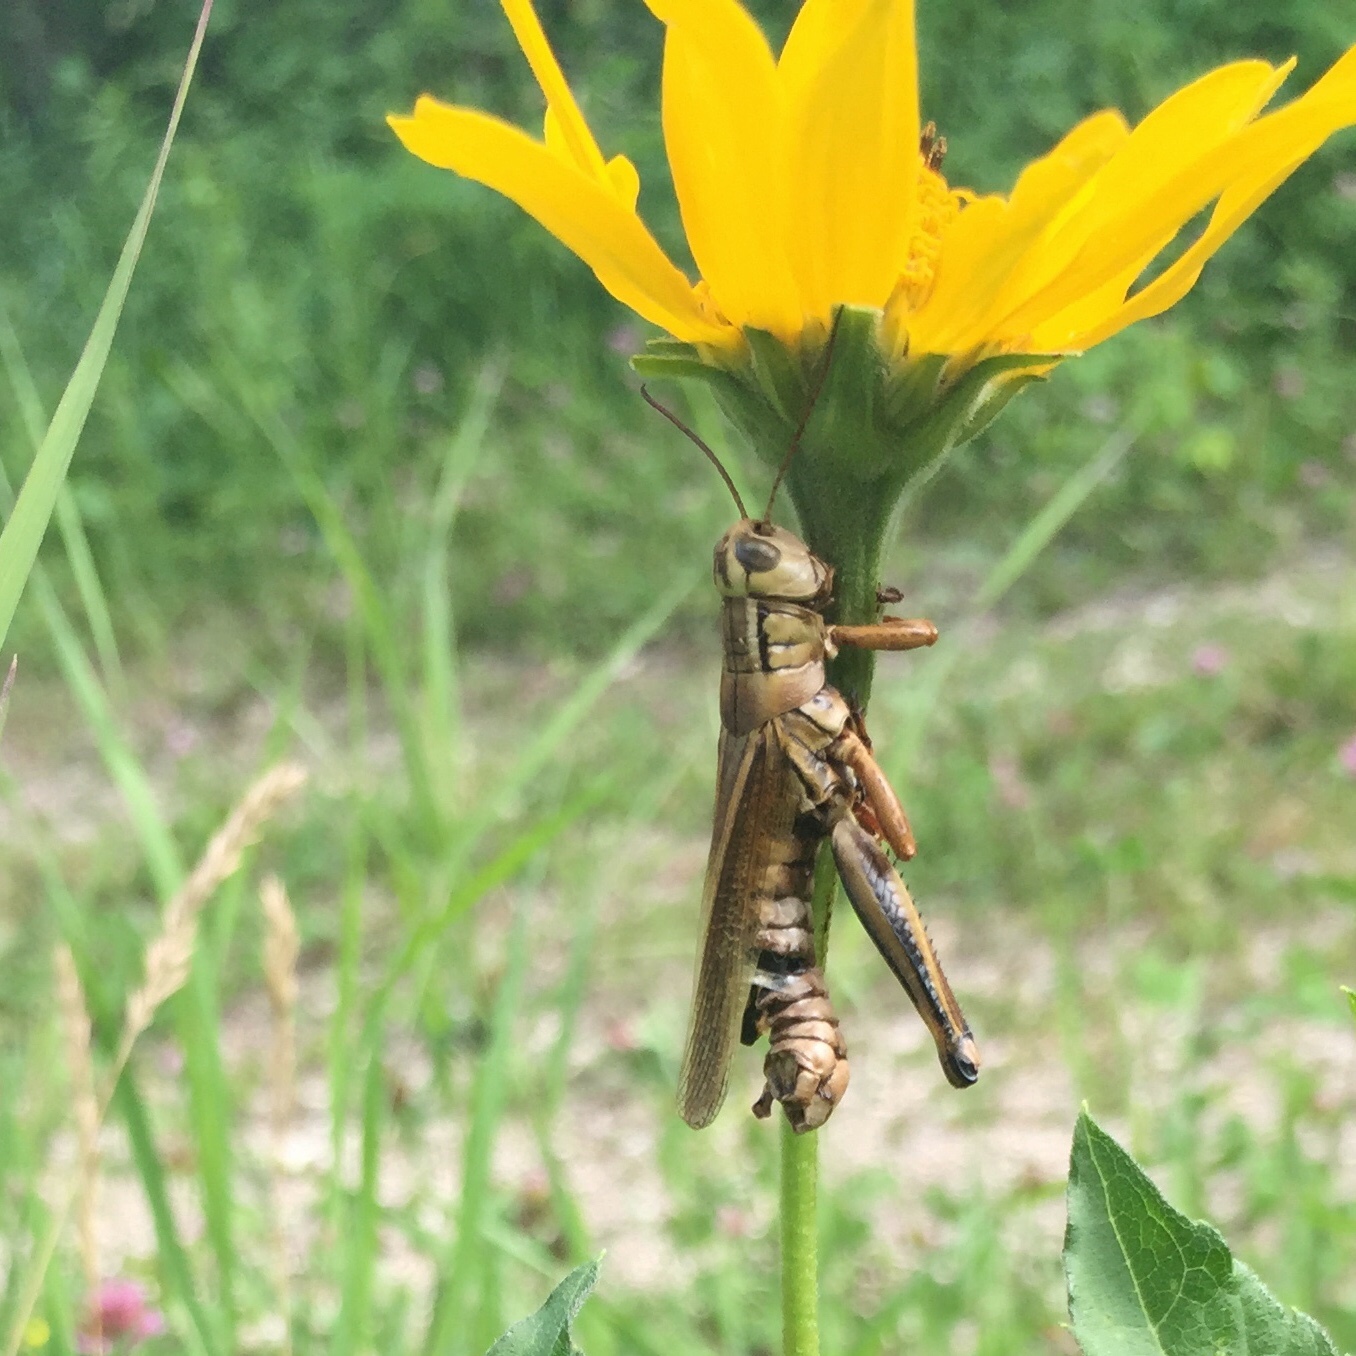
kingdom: Animalia
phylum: Arthropoda
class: Insecta
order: Orthoptera
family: Acrididae
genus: Melanoplus
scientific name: Melanoplus bivittatus
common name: Two-striped grasshopper
